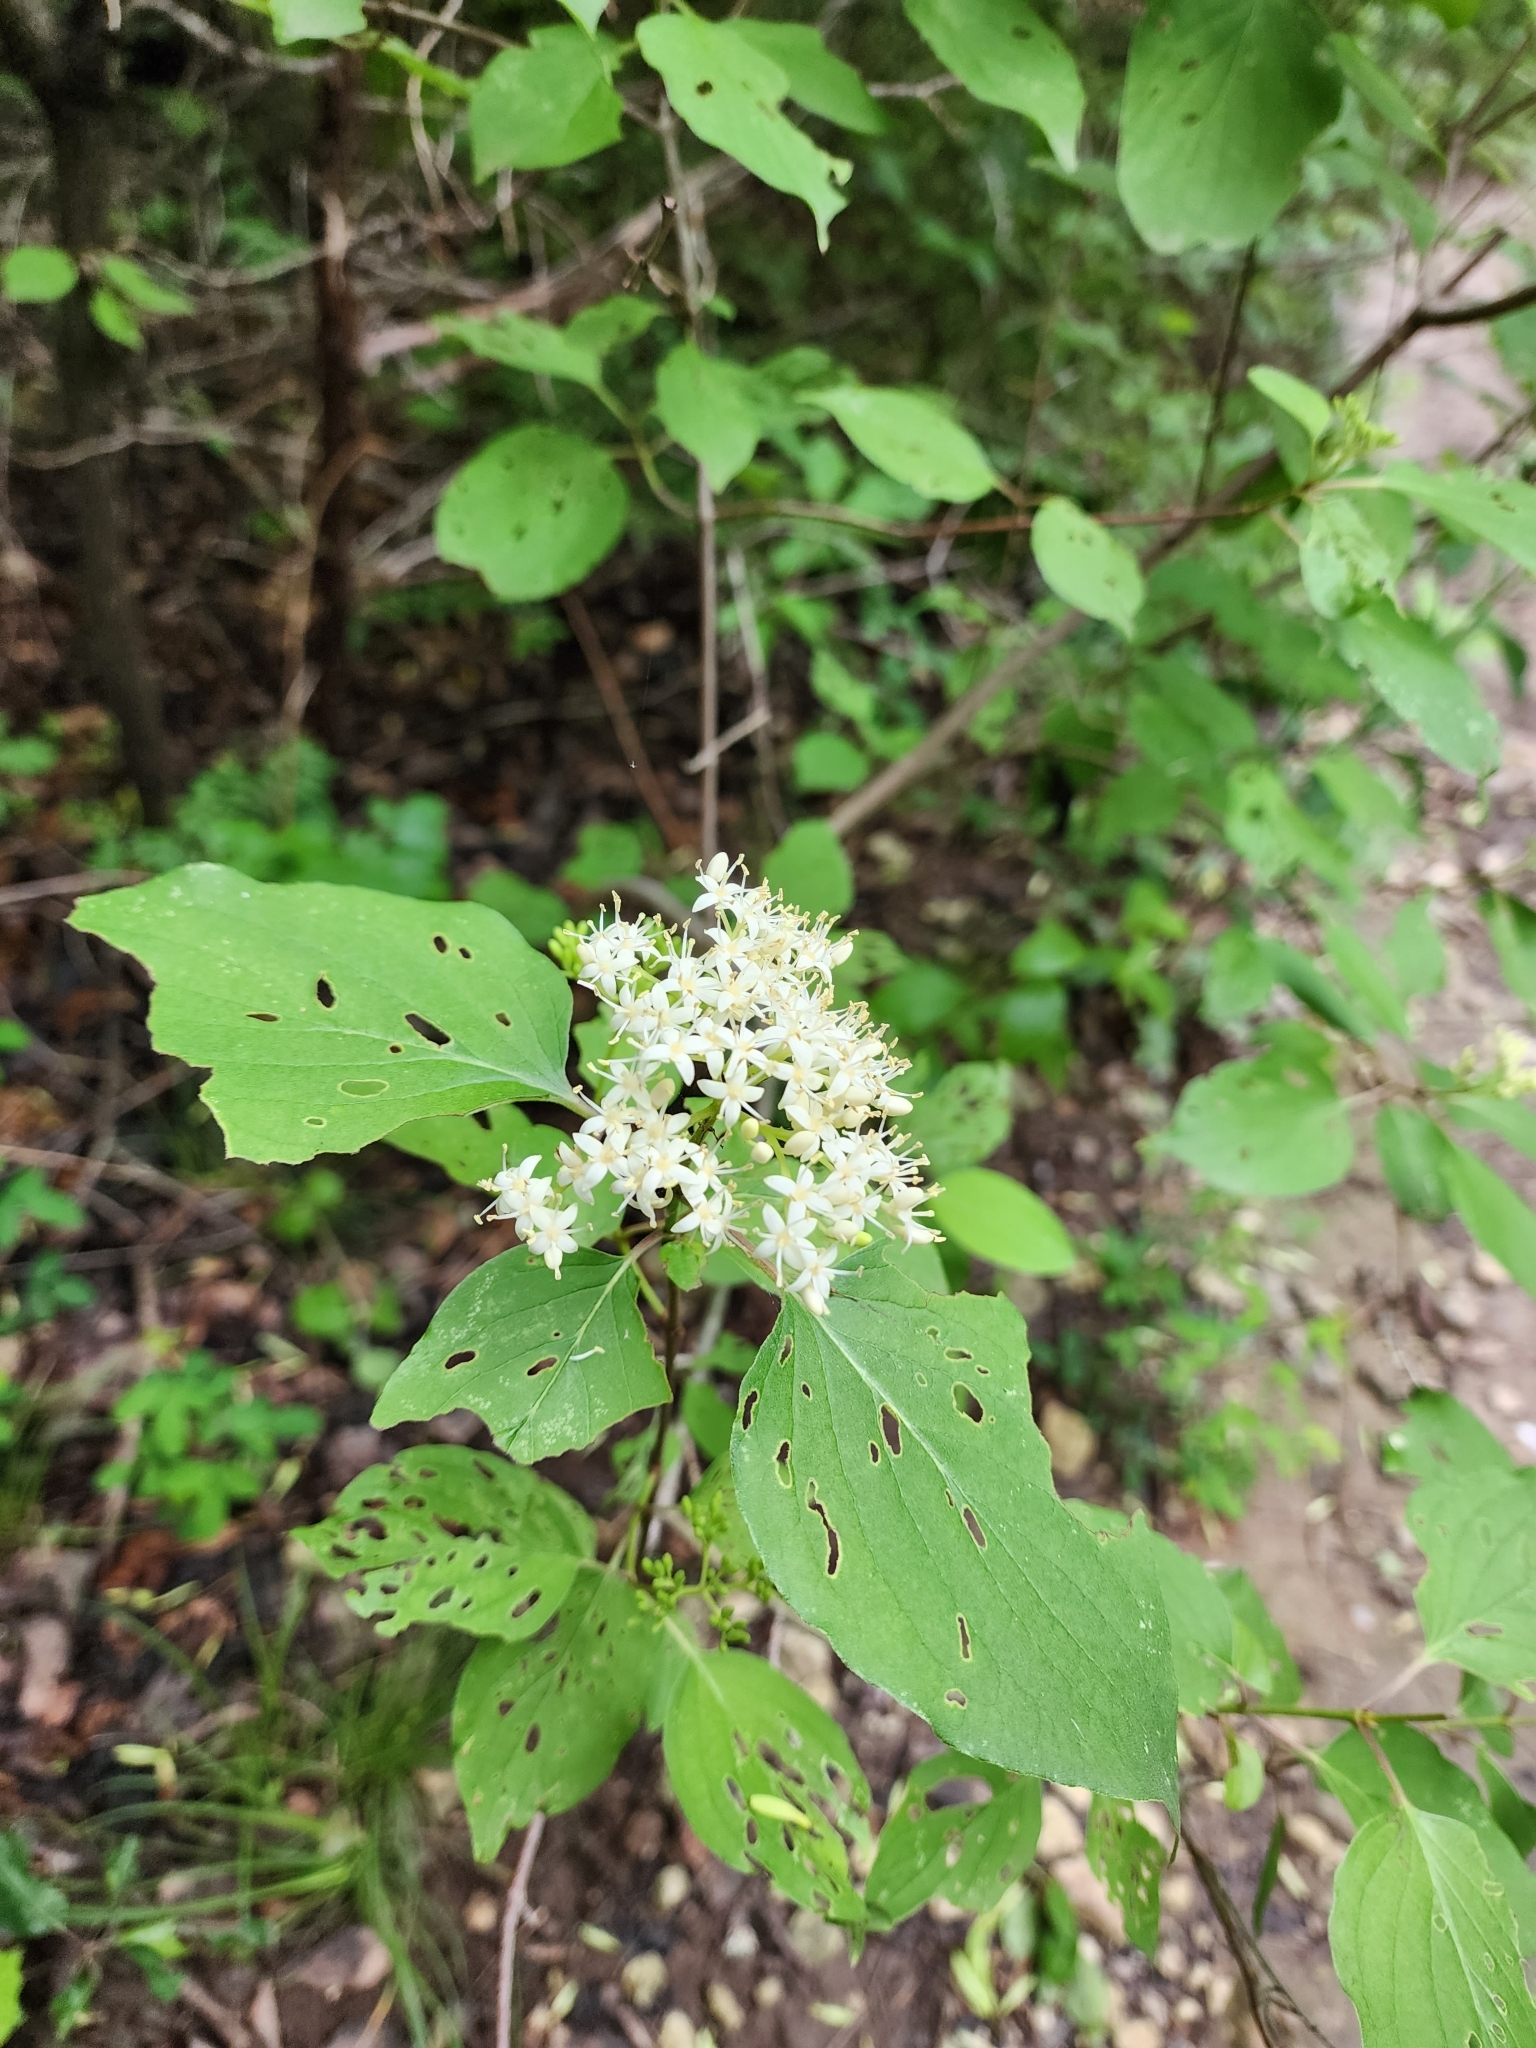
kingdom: Plantae
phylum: Tracheophyta
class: Magnoliopsida
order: Cornales
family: Cornaceae
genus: Cornus
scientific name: Cornus drummondii
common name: Rough-leaf dogwood
